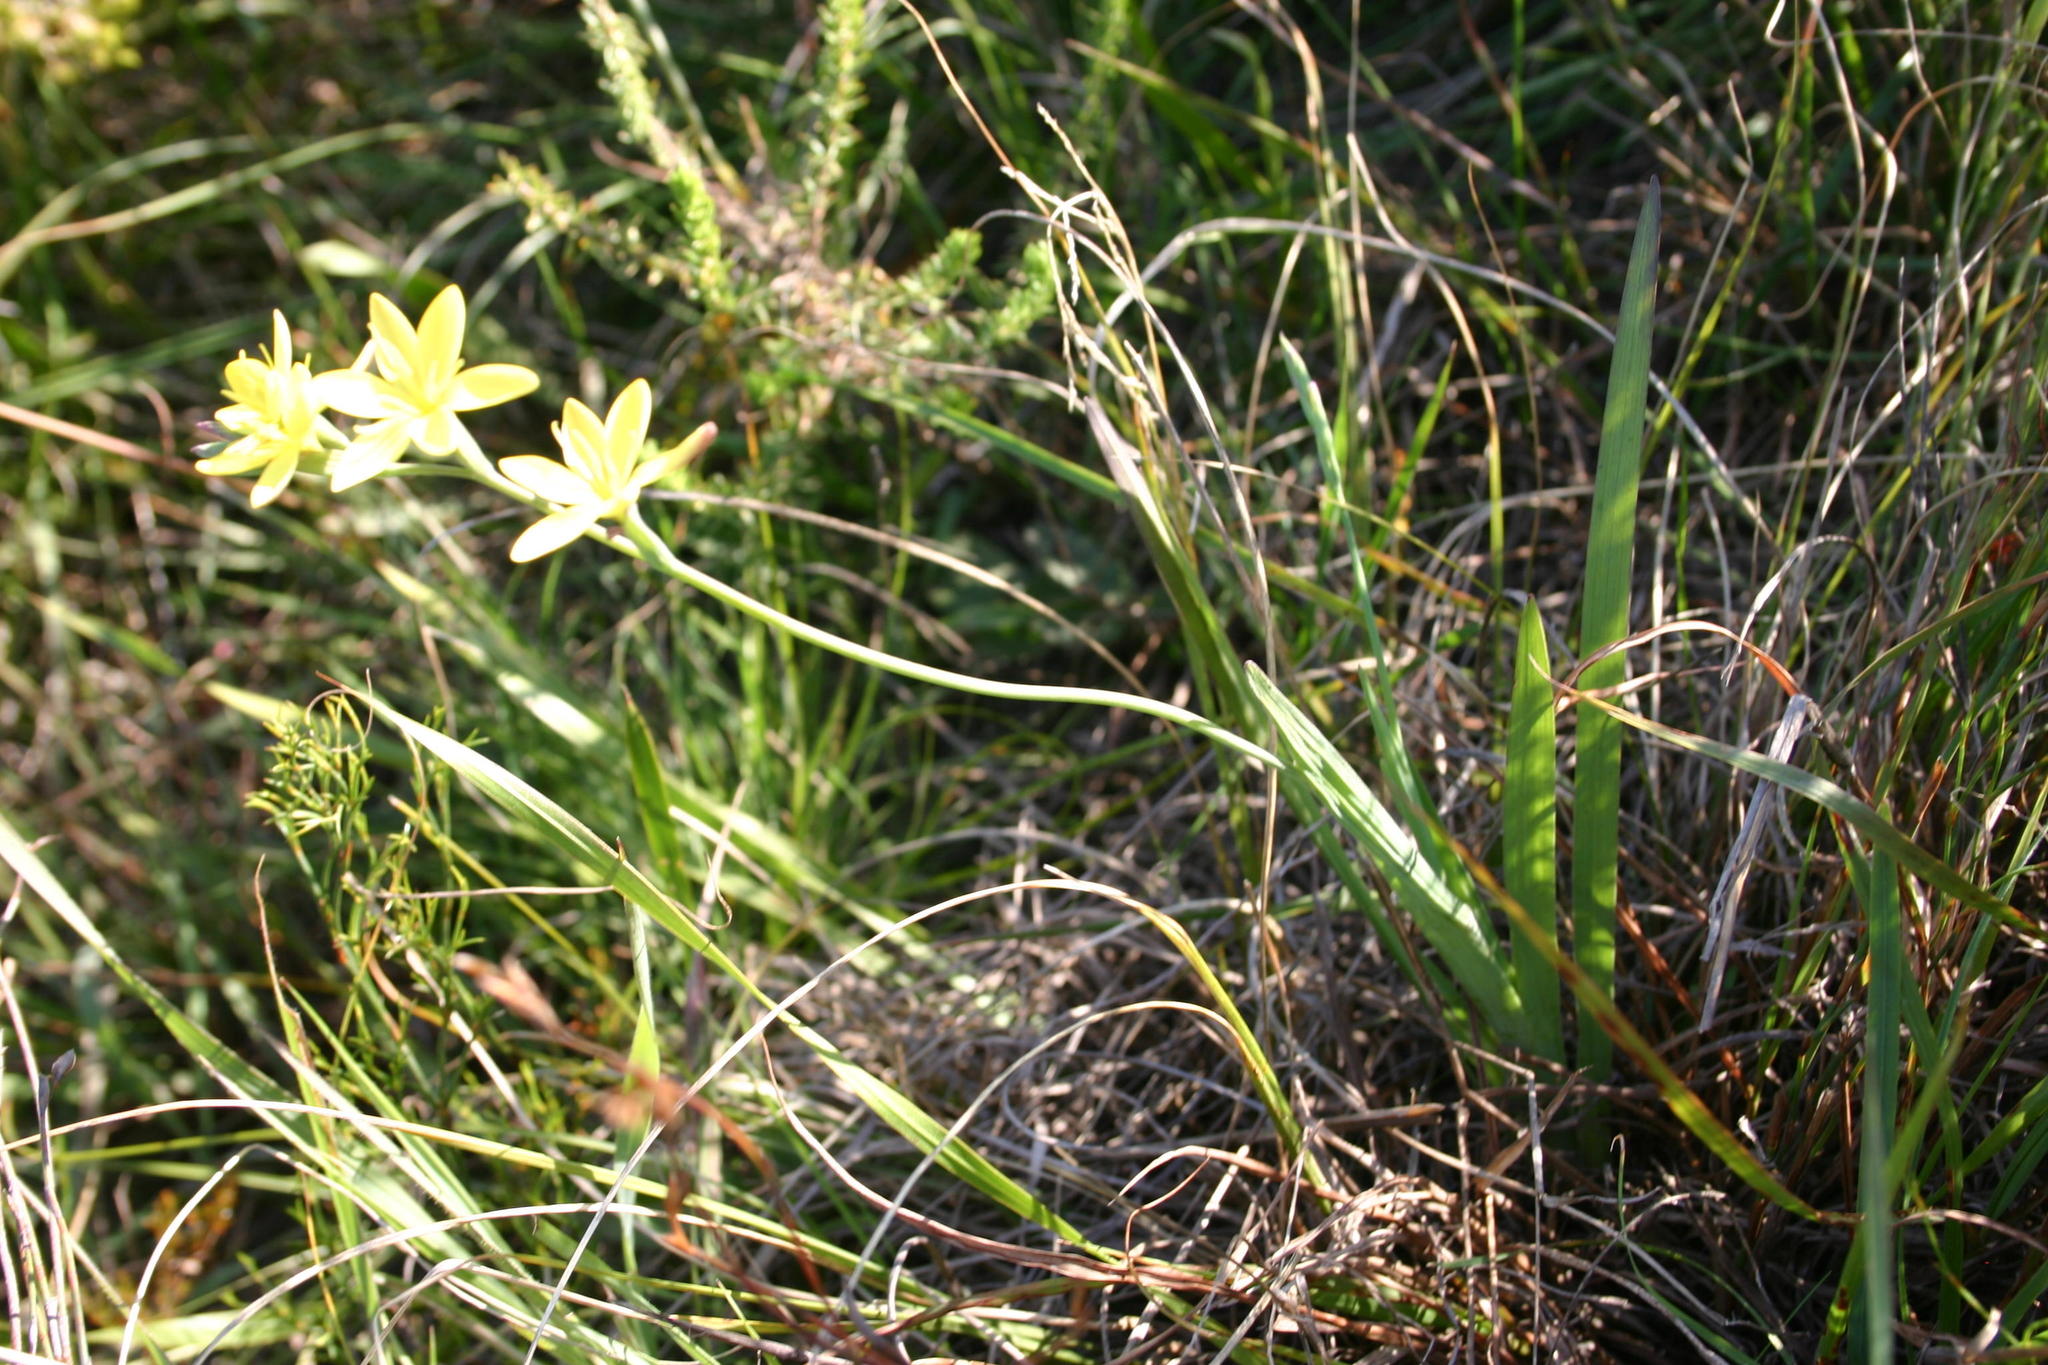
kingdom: Plantae
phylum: Tracheophyta
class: Liliopsida
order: Asparagales
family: Iridaceae
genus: Hesperantha
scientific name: Hesperantha falcata
